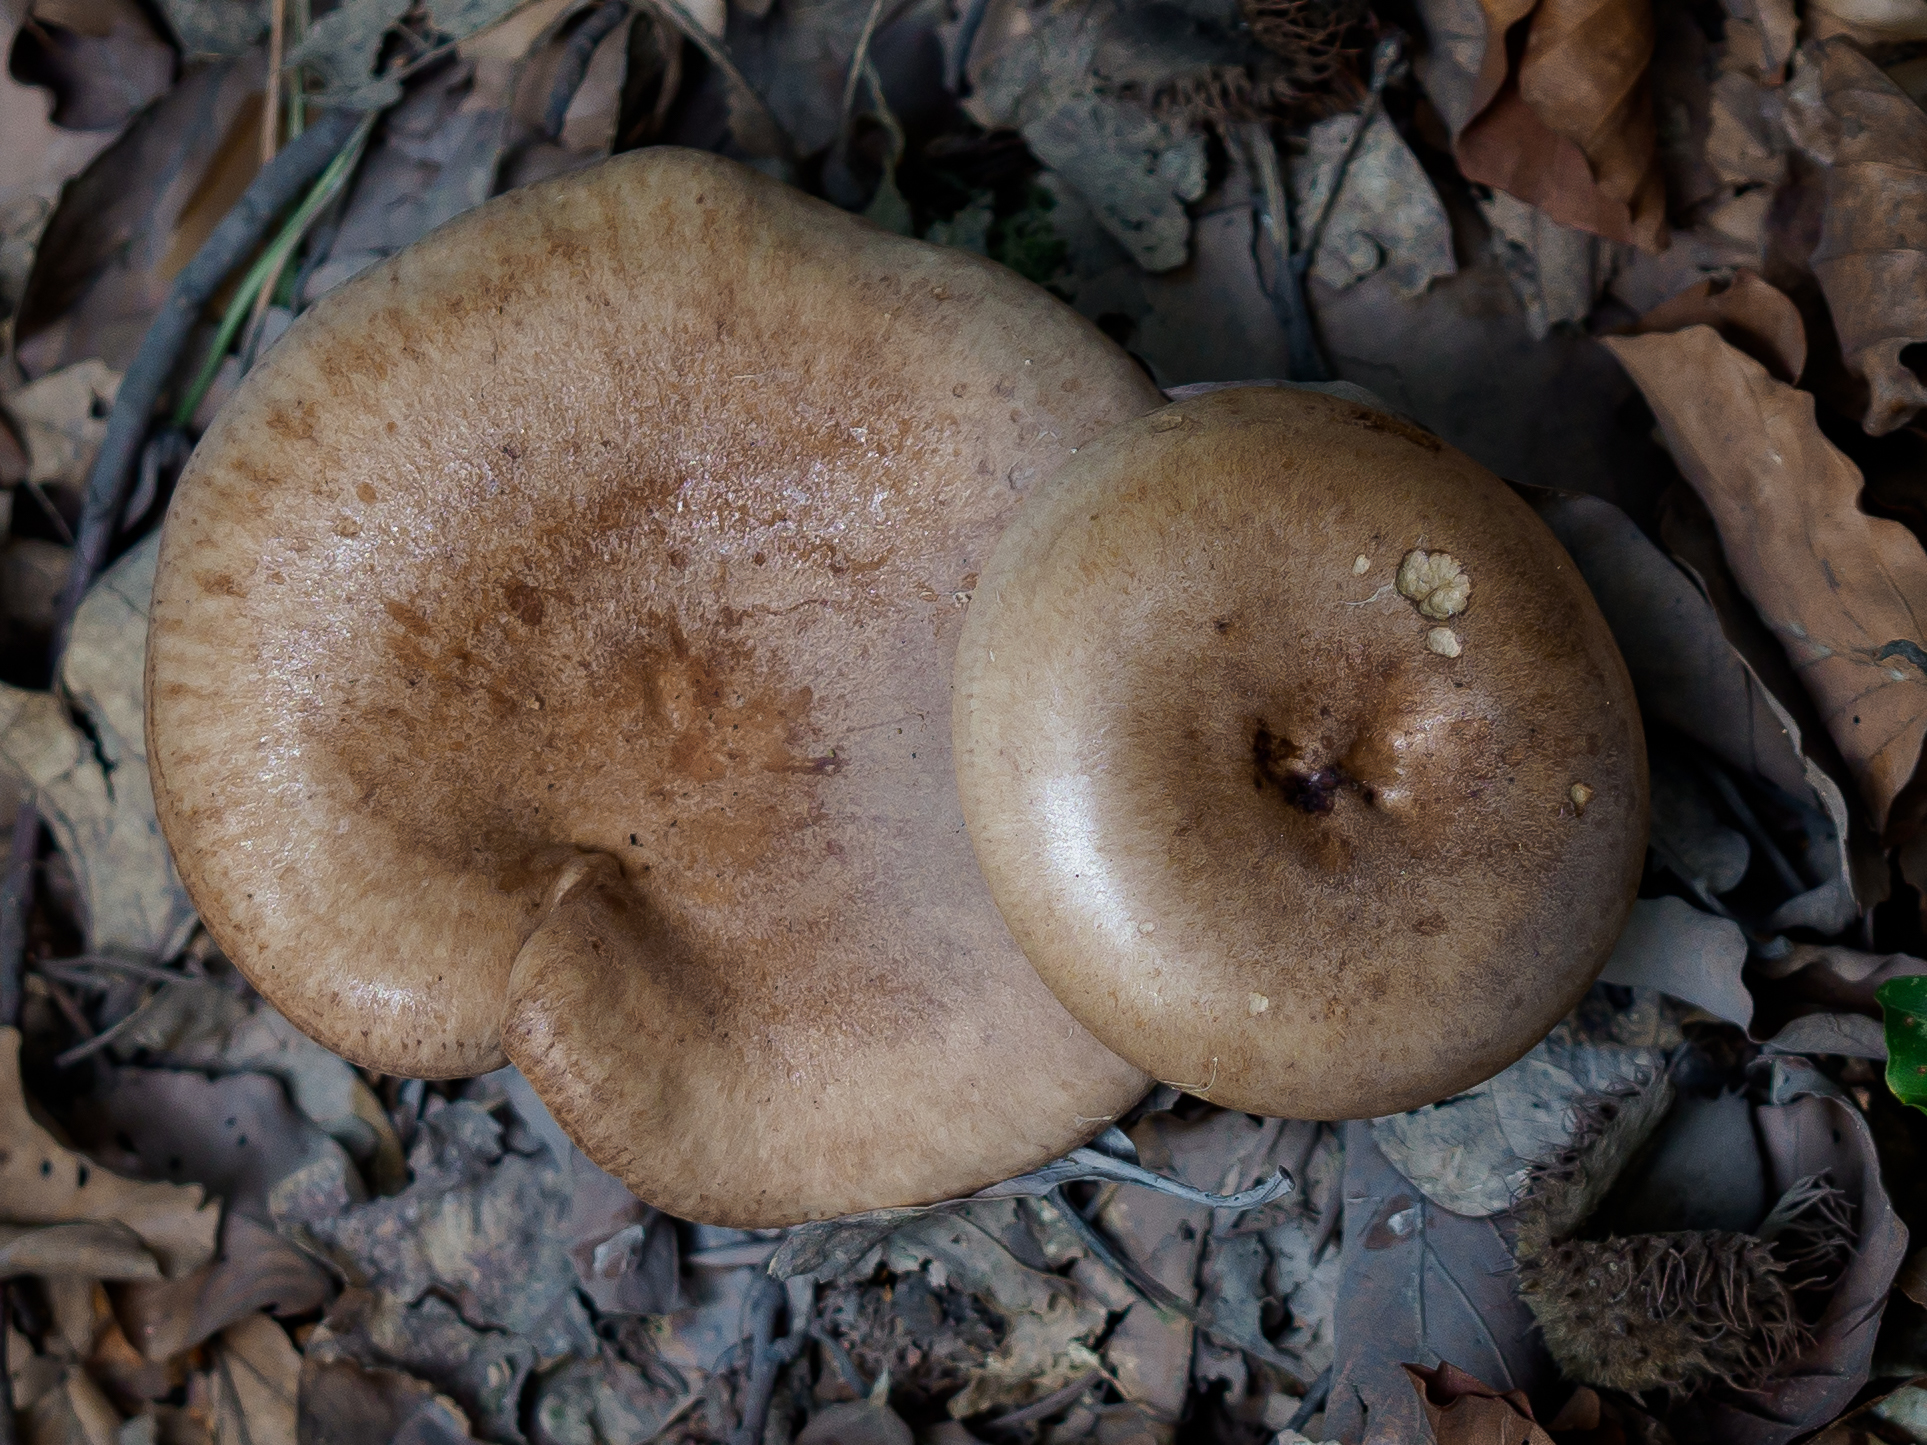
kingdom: Fungi
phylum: Basidiomycota
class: Agaricomycetes
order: Russulales
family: Russulaceae
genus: Lactarius
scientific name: Lactarius quietus
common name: Oak milk-cap
